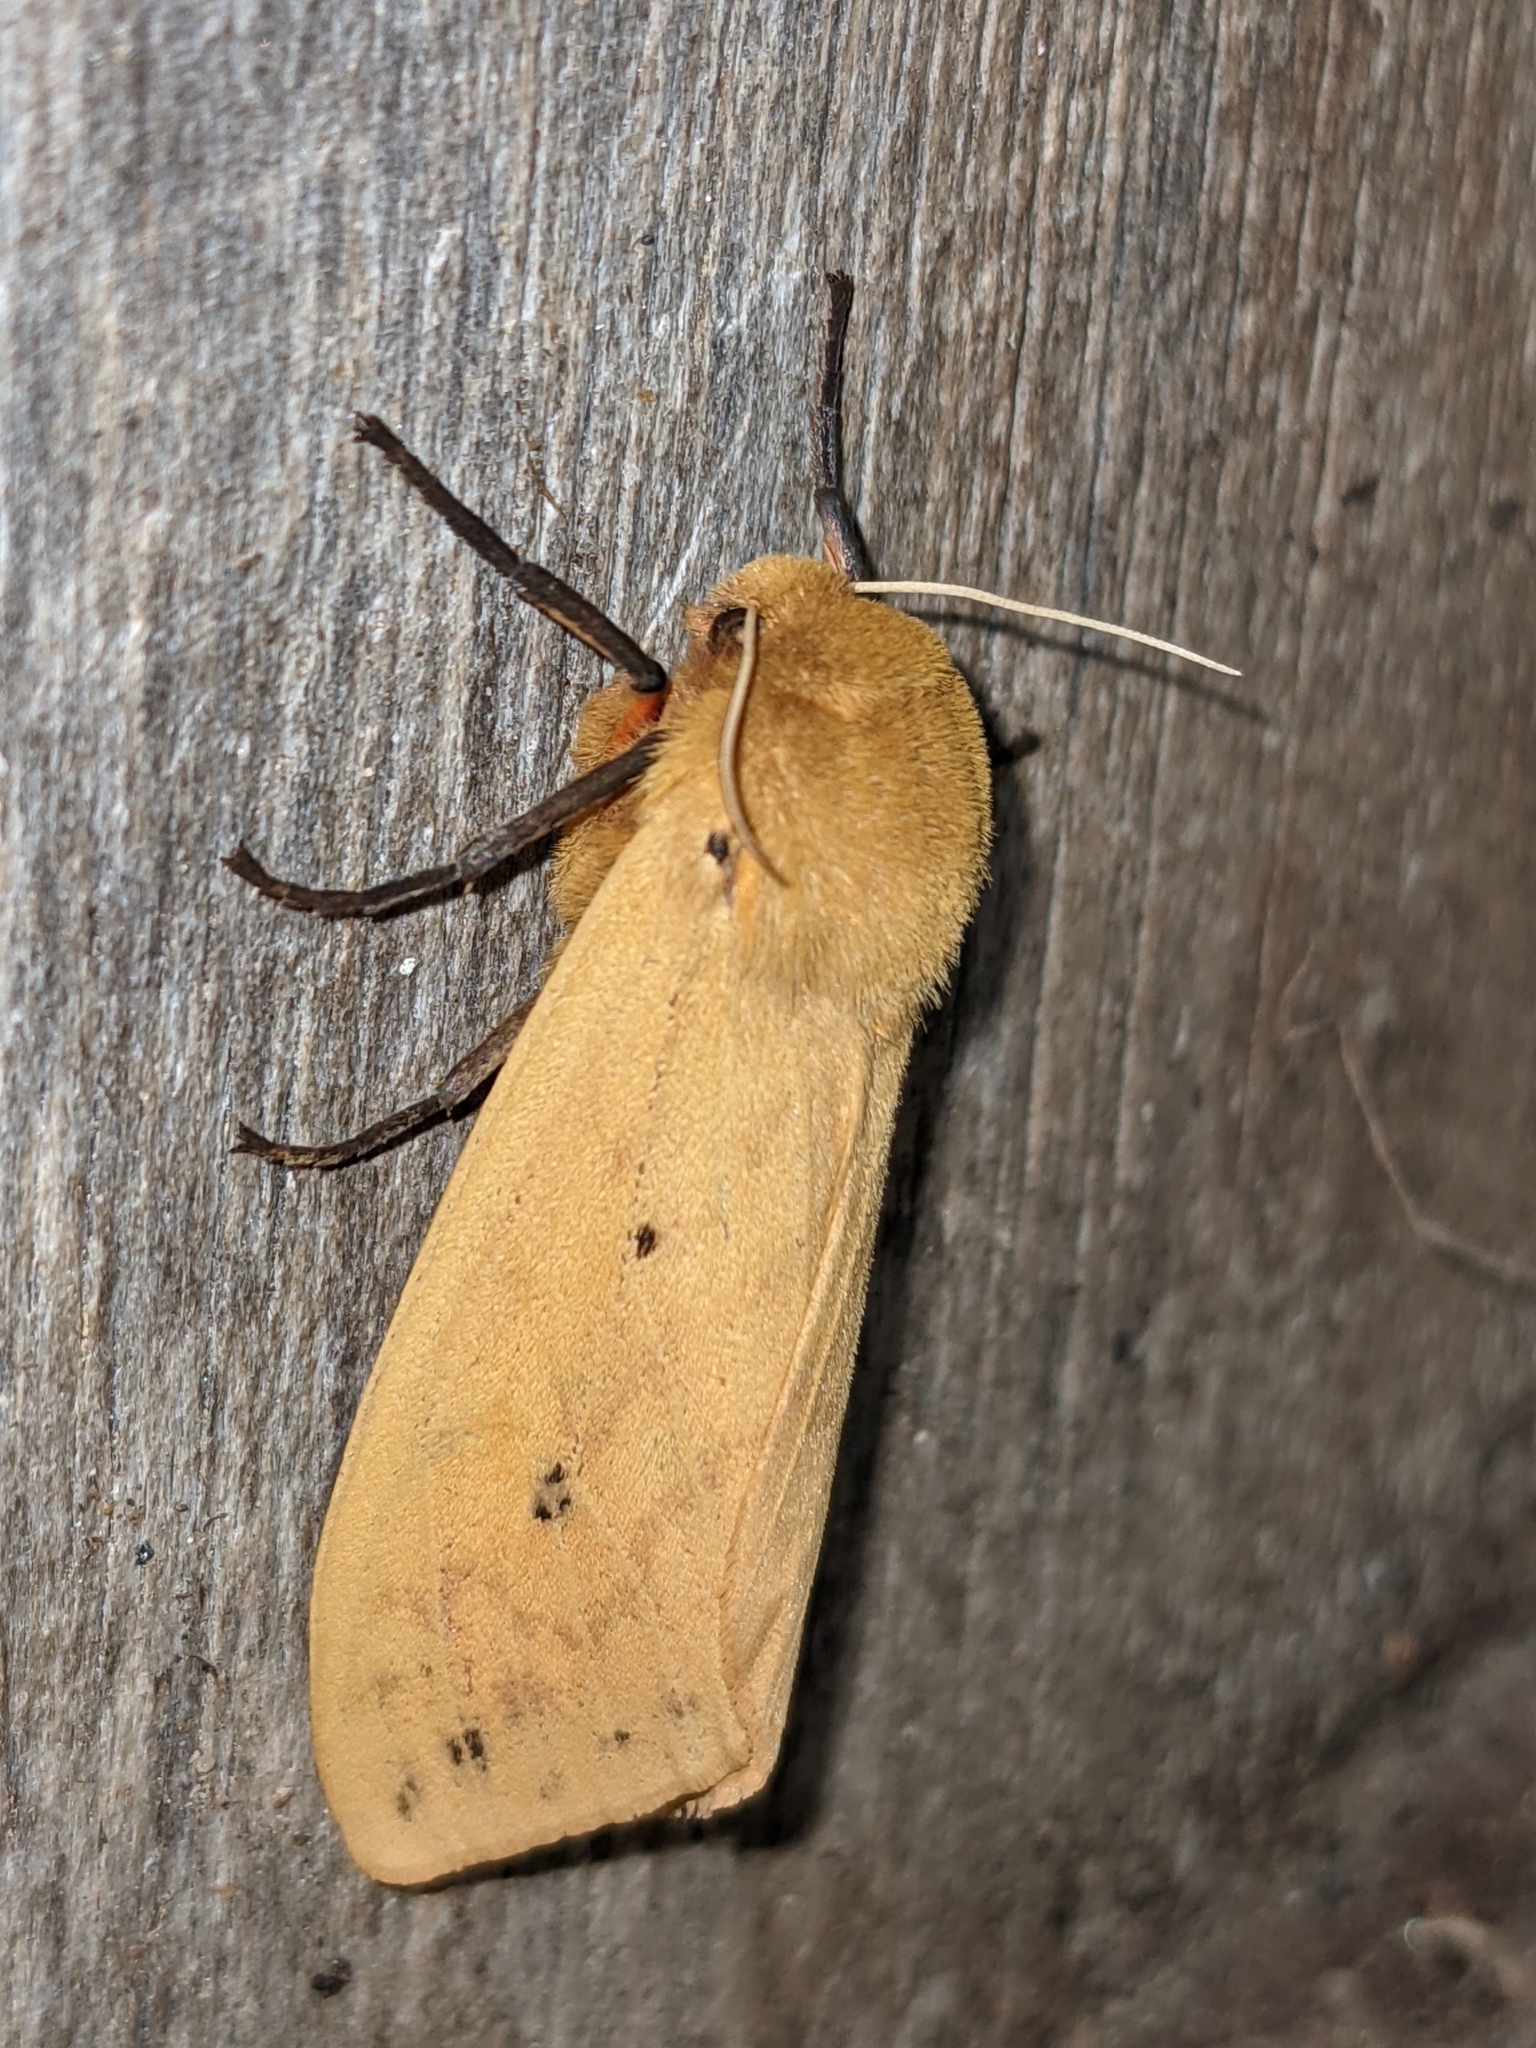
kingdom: Animalia
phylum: Arthropoda
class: Insecta
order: Lepidoptera
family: Erebidae
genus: Pyrrharctia
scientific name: Pyrrharctia isabella
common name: Isabella tiger moth
